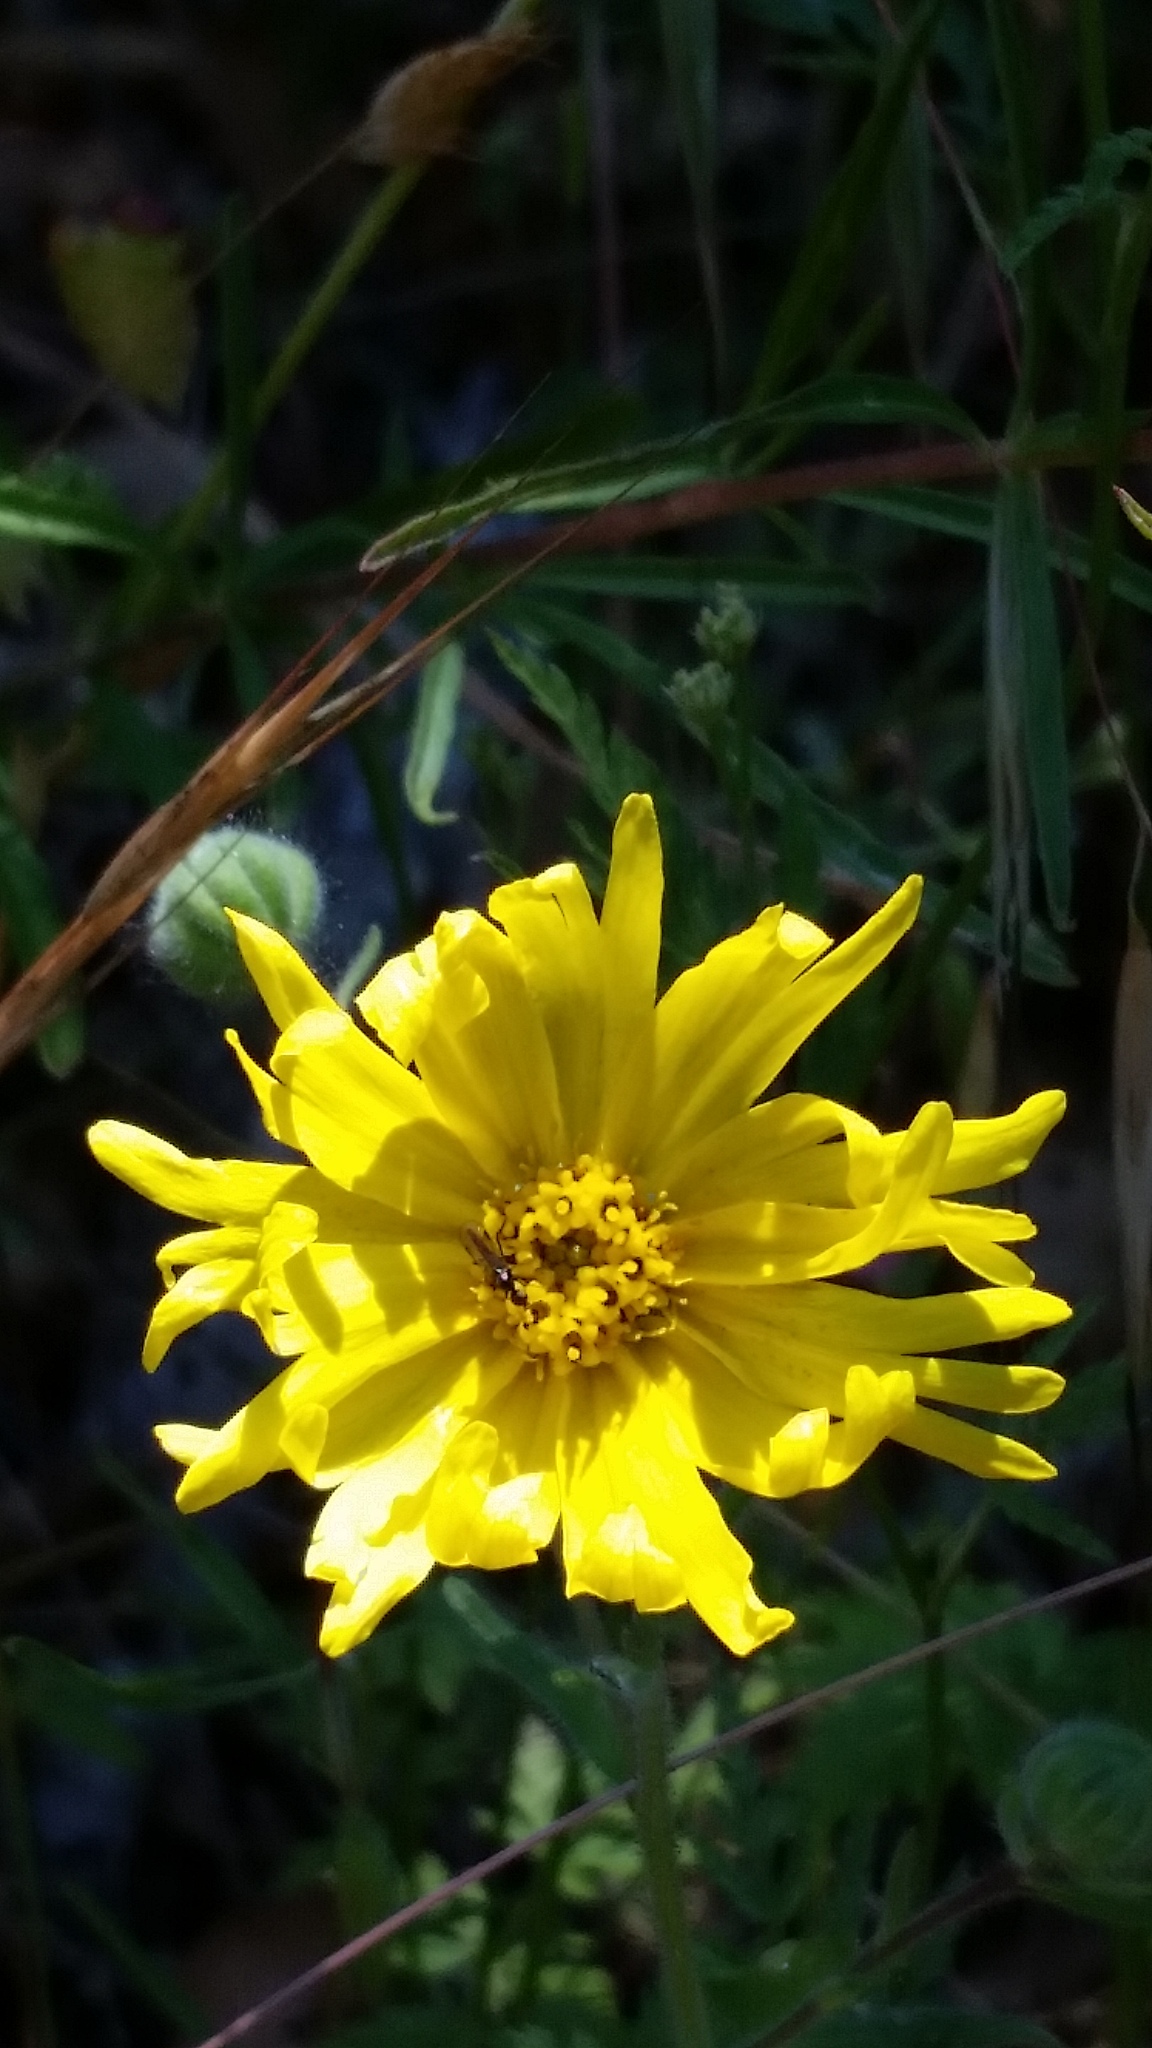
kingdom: Plantae
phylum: Tracheophyta
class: Magnoliopsida
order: Asterales
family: Asteraceae
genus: Madia
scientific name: Madia elegans
